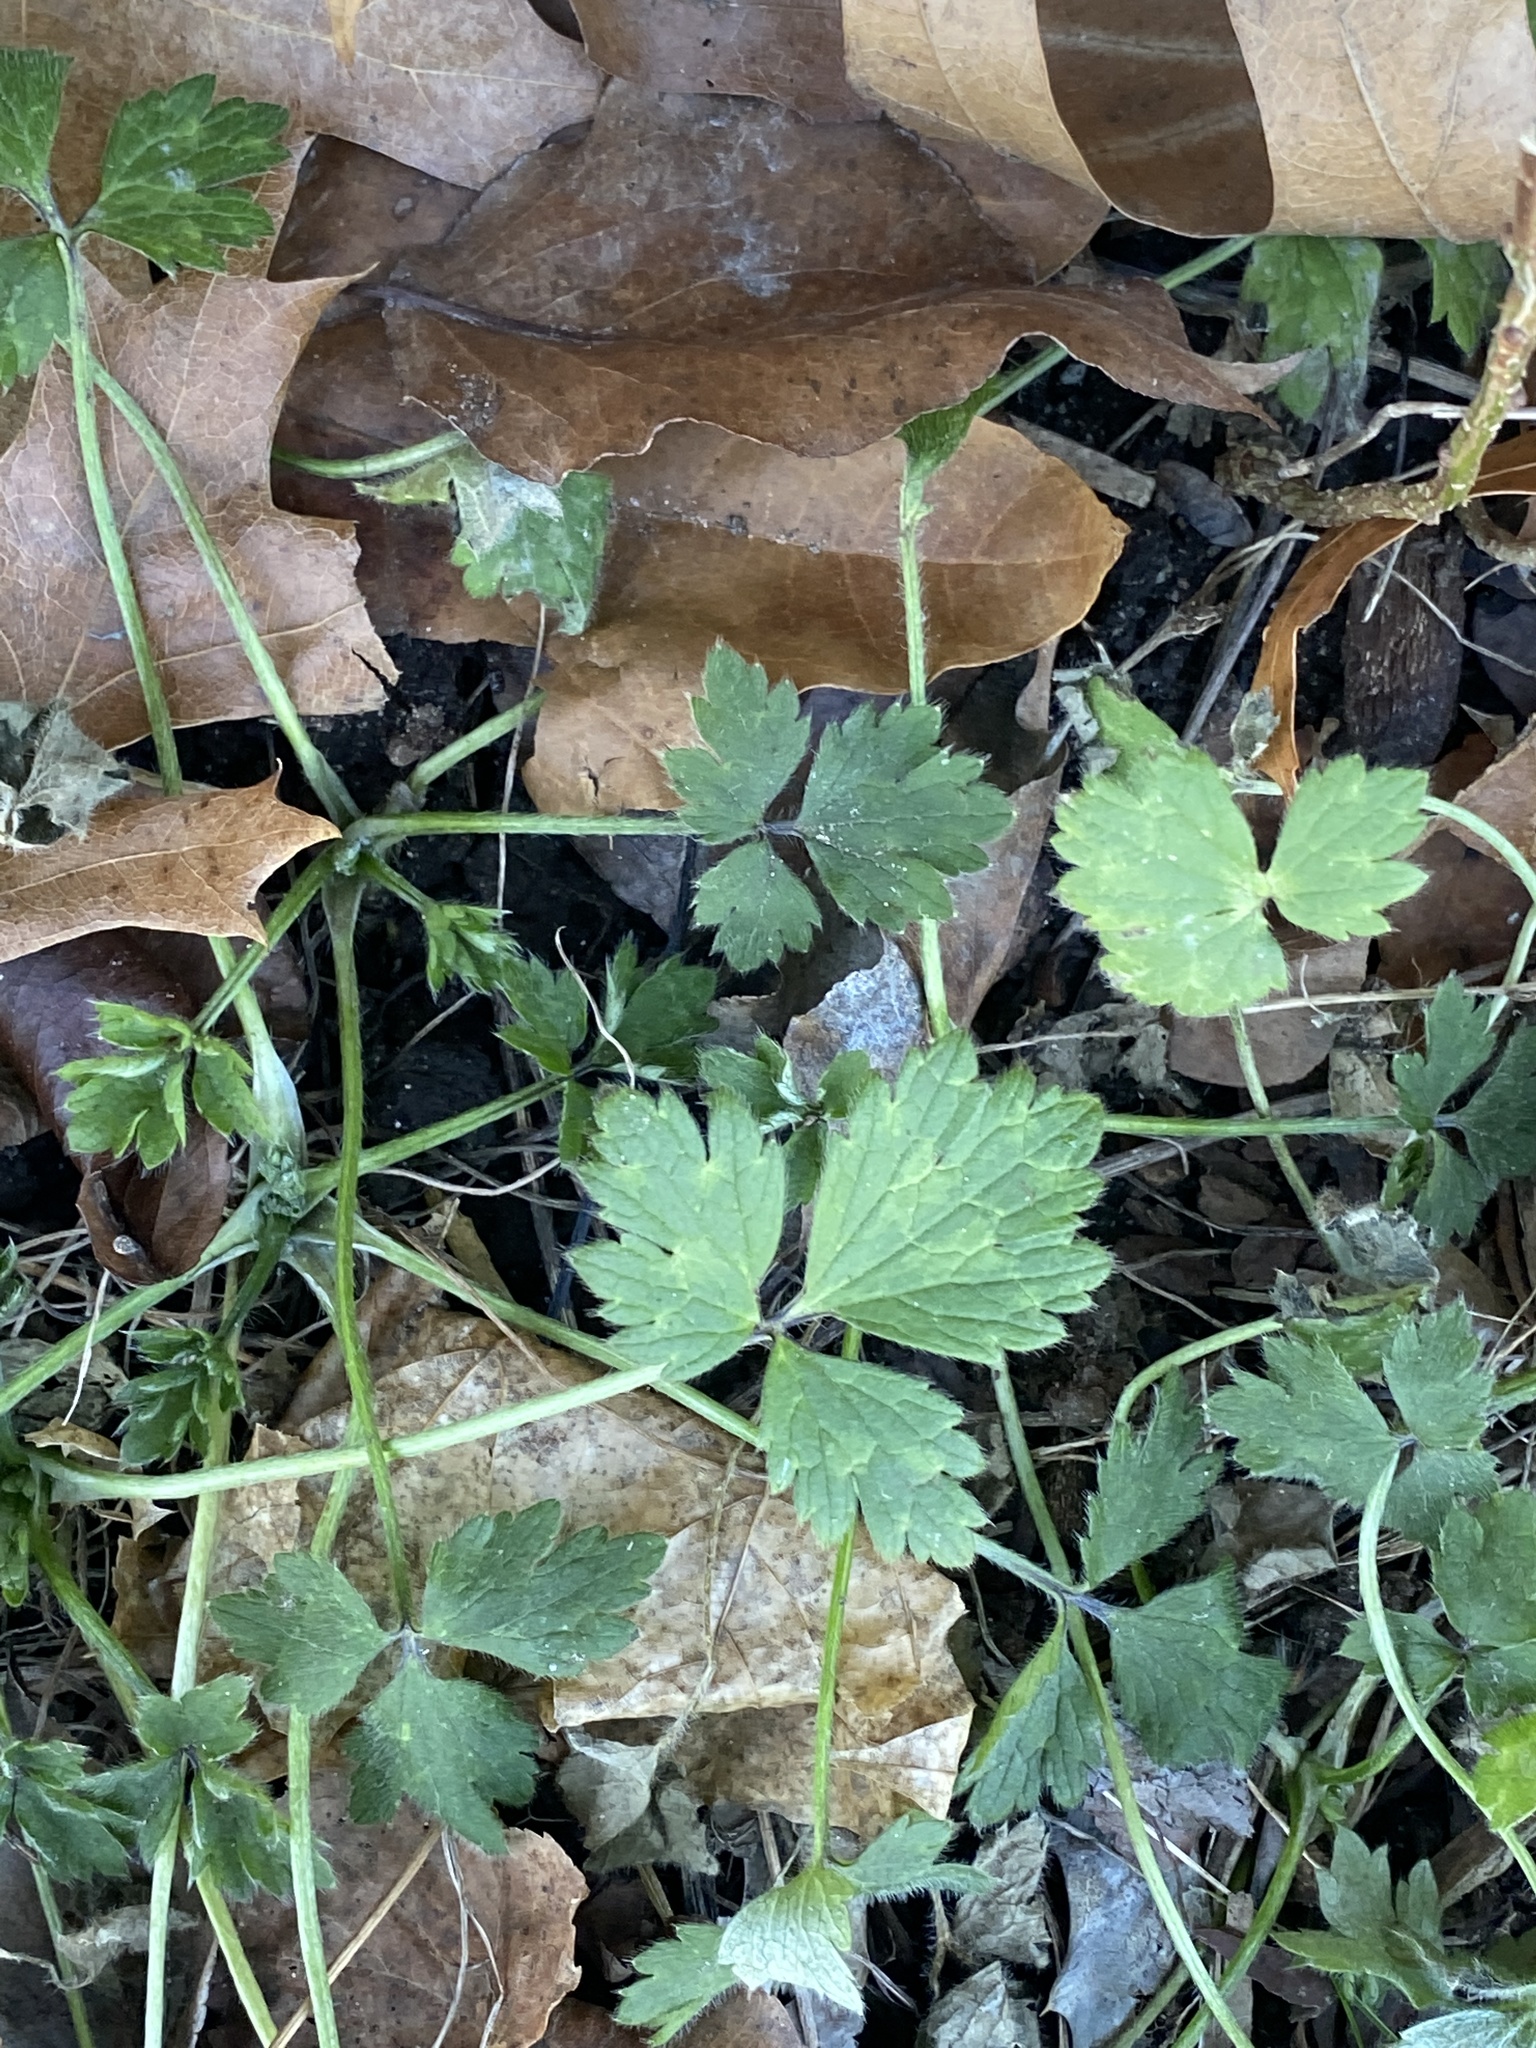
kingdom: Plantae
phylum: Tracheophyta
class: Magnoliopsida
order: Ranunculales
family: Ranunculaceae
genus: Ranunculus
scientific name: Ranunculus repens
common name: Creeping buttercup
